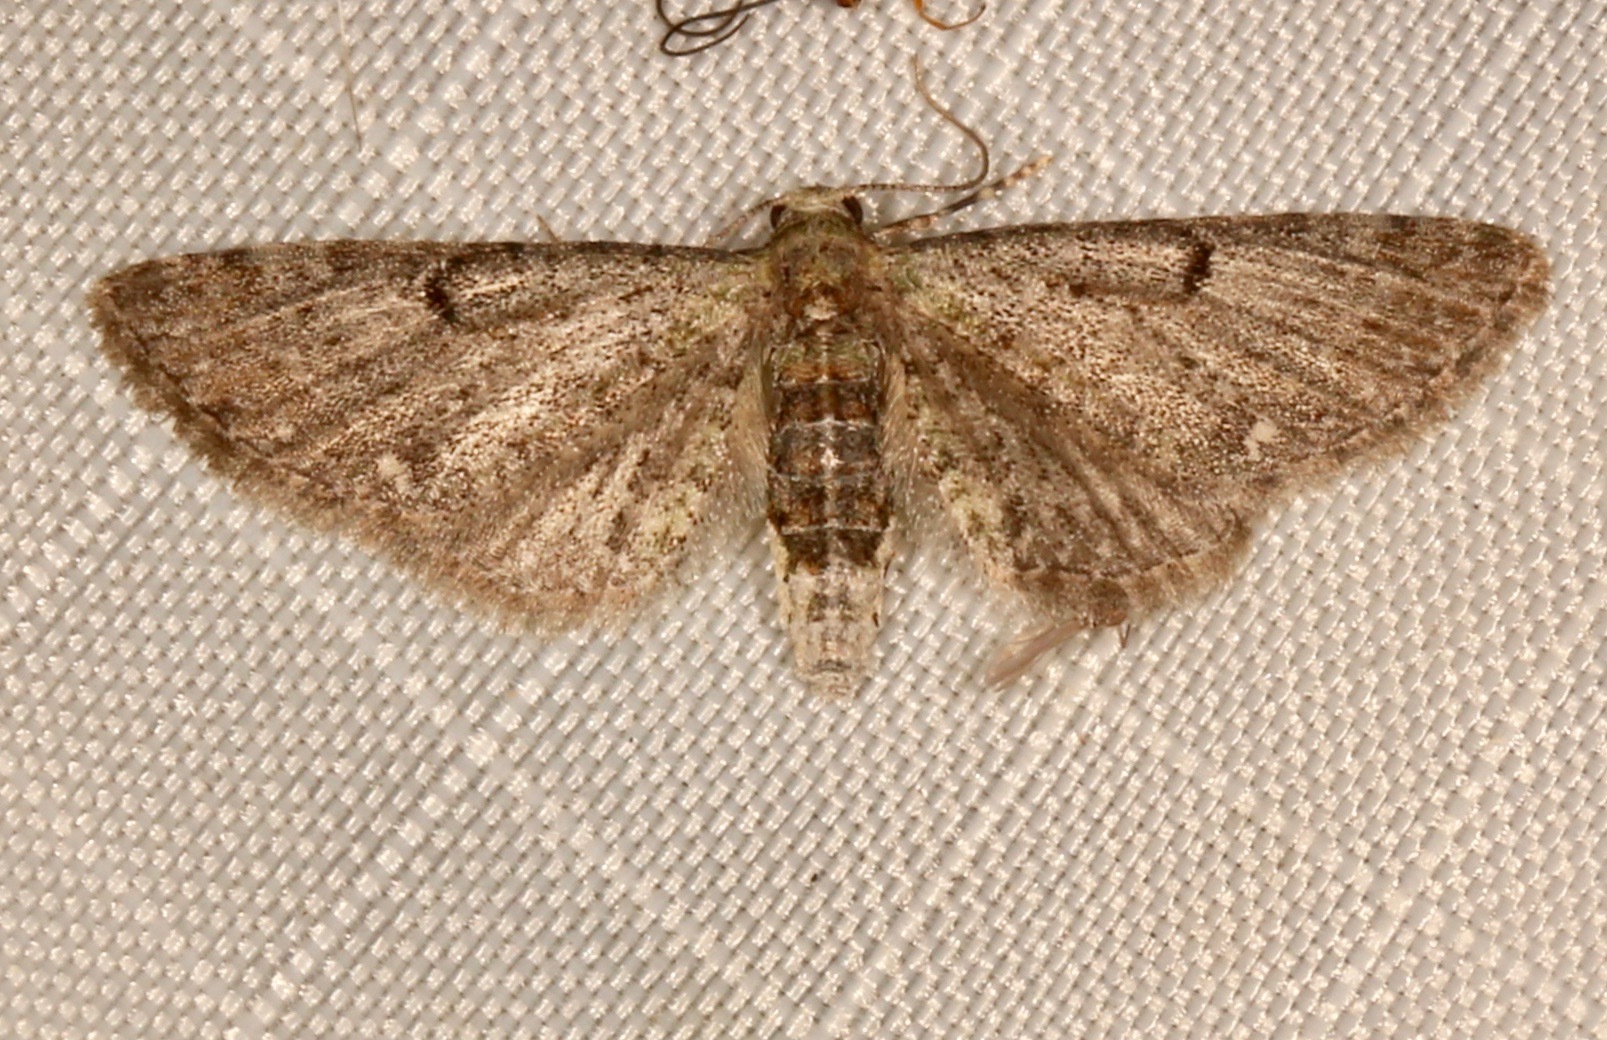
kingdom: Animalia
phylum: Arthropoda
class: Insecta
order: Lepidoptera
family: Geometridae
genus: Eupithecia
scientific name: Eupithecia miserulata
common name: Common eupithecia
